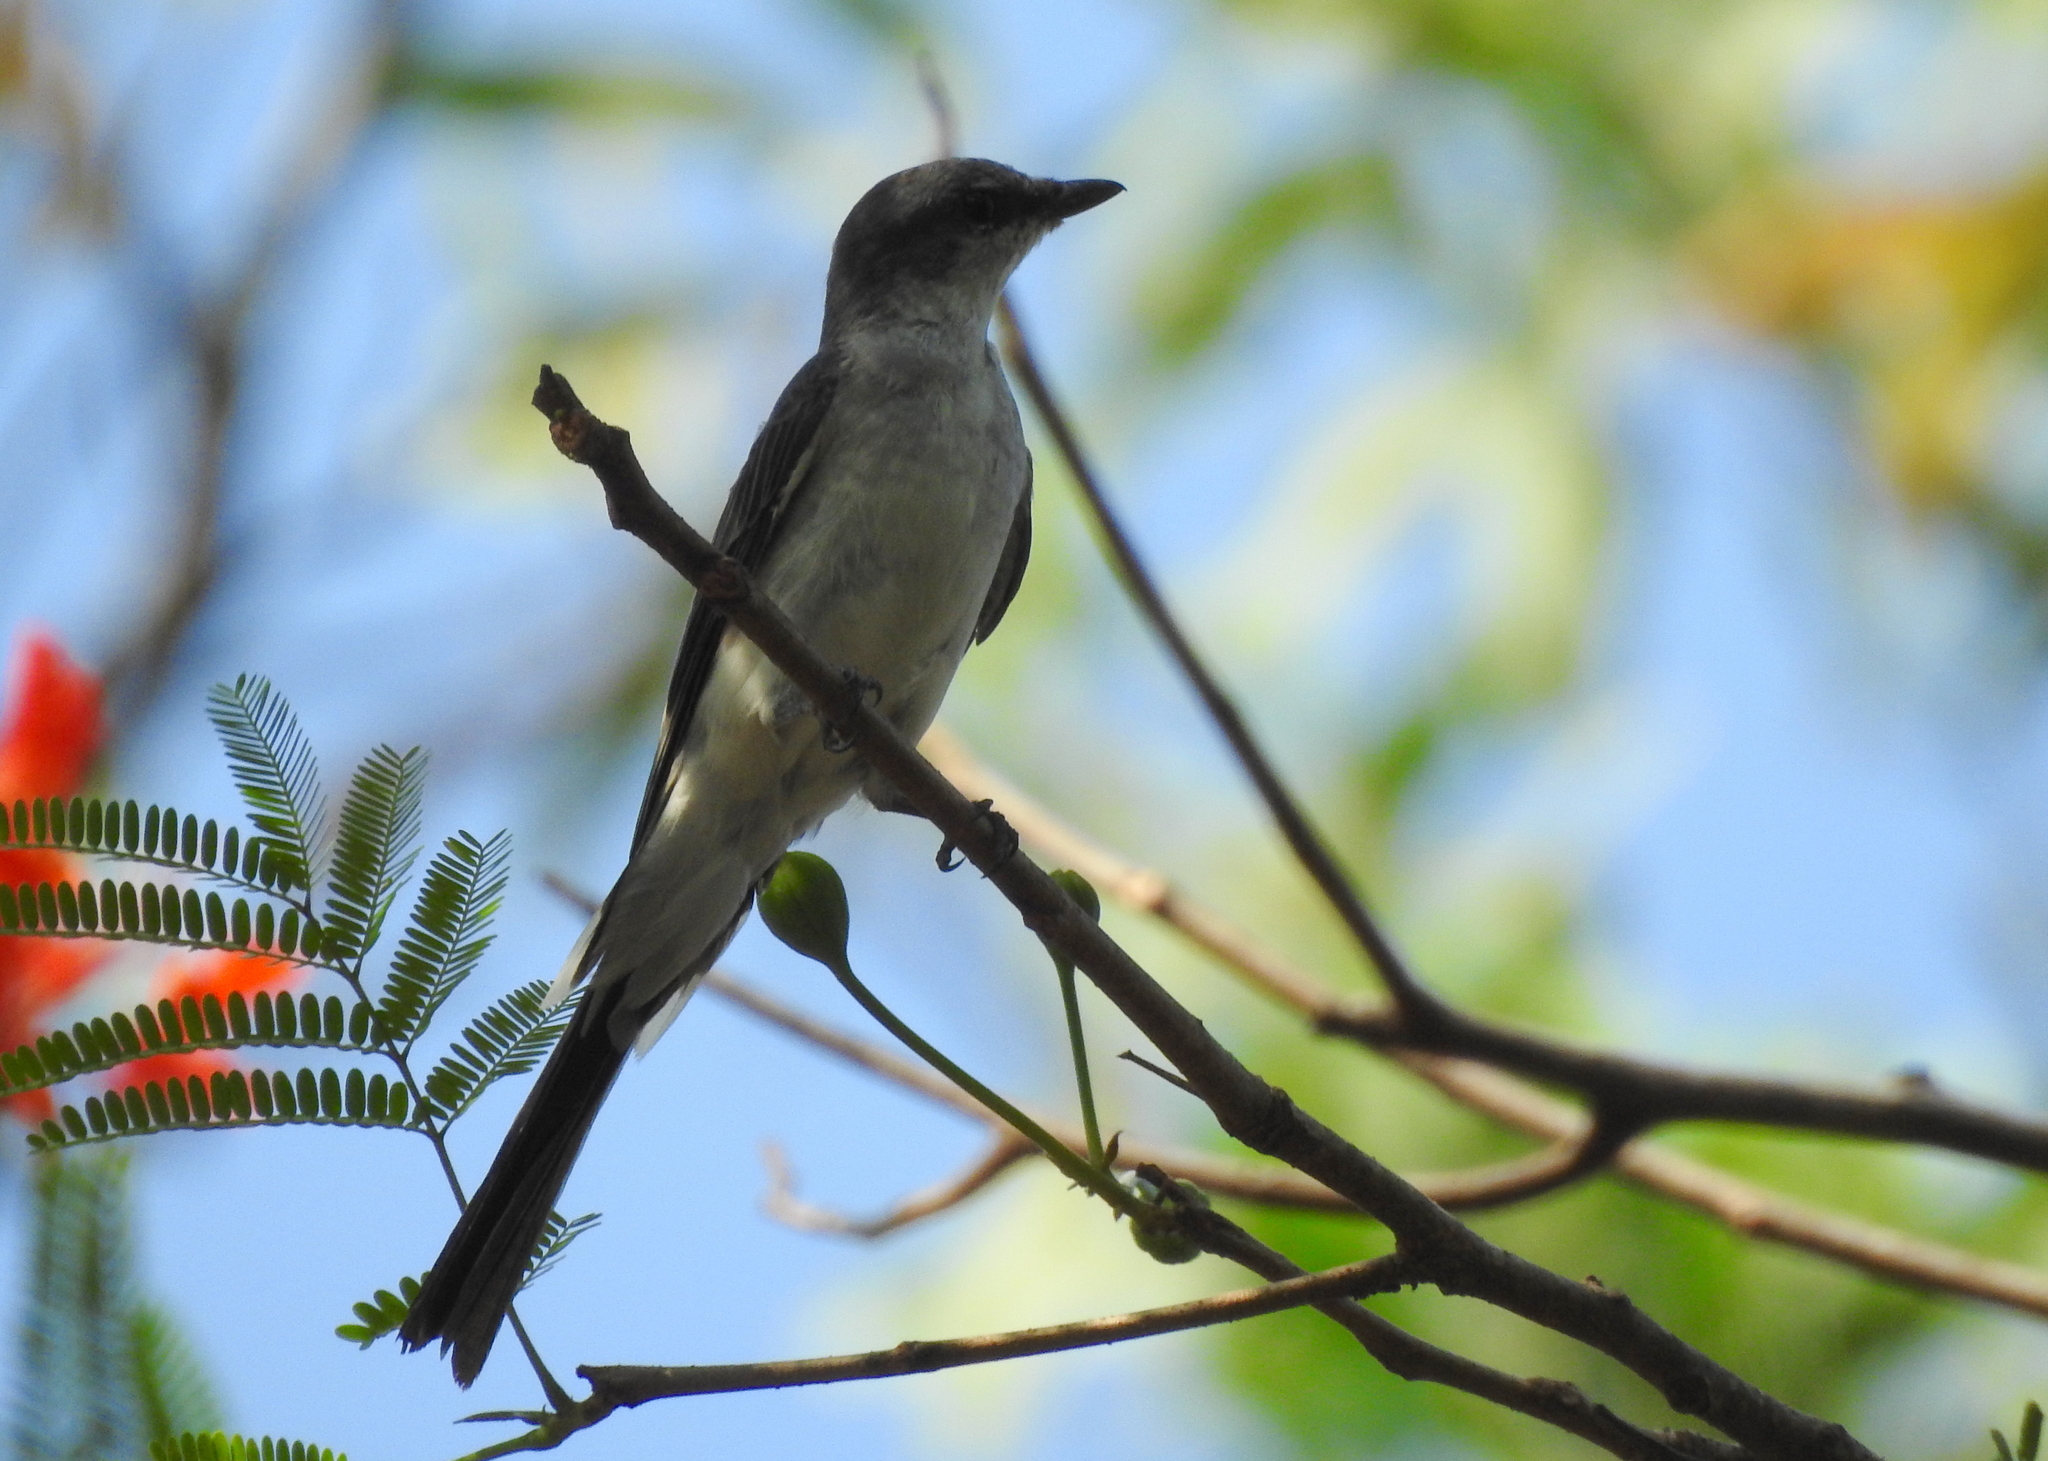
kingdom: Animalia
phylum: Chordata
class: Aves
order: Passeriformes
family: Campephagidae
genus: Pericrocotus
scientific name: Pericrocotus divaricatus
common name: Ashy minivet
